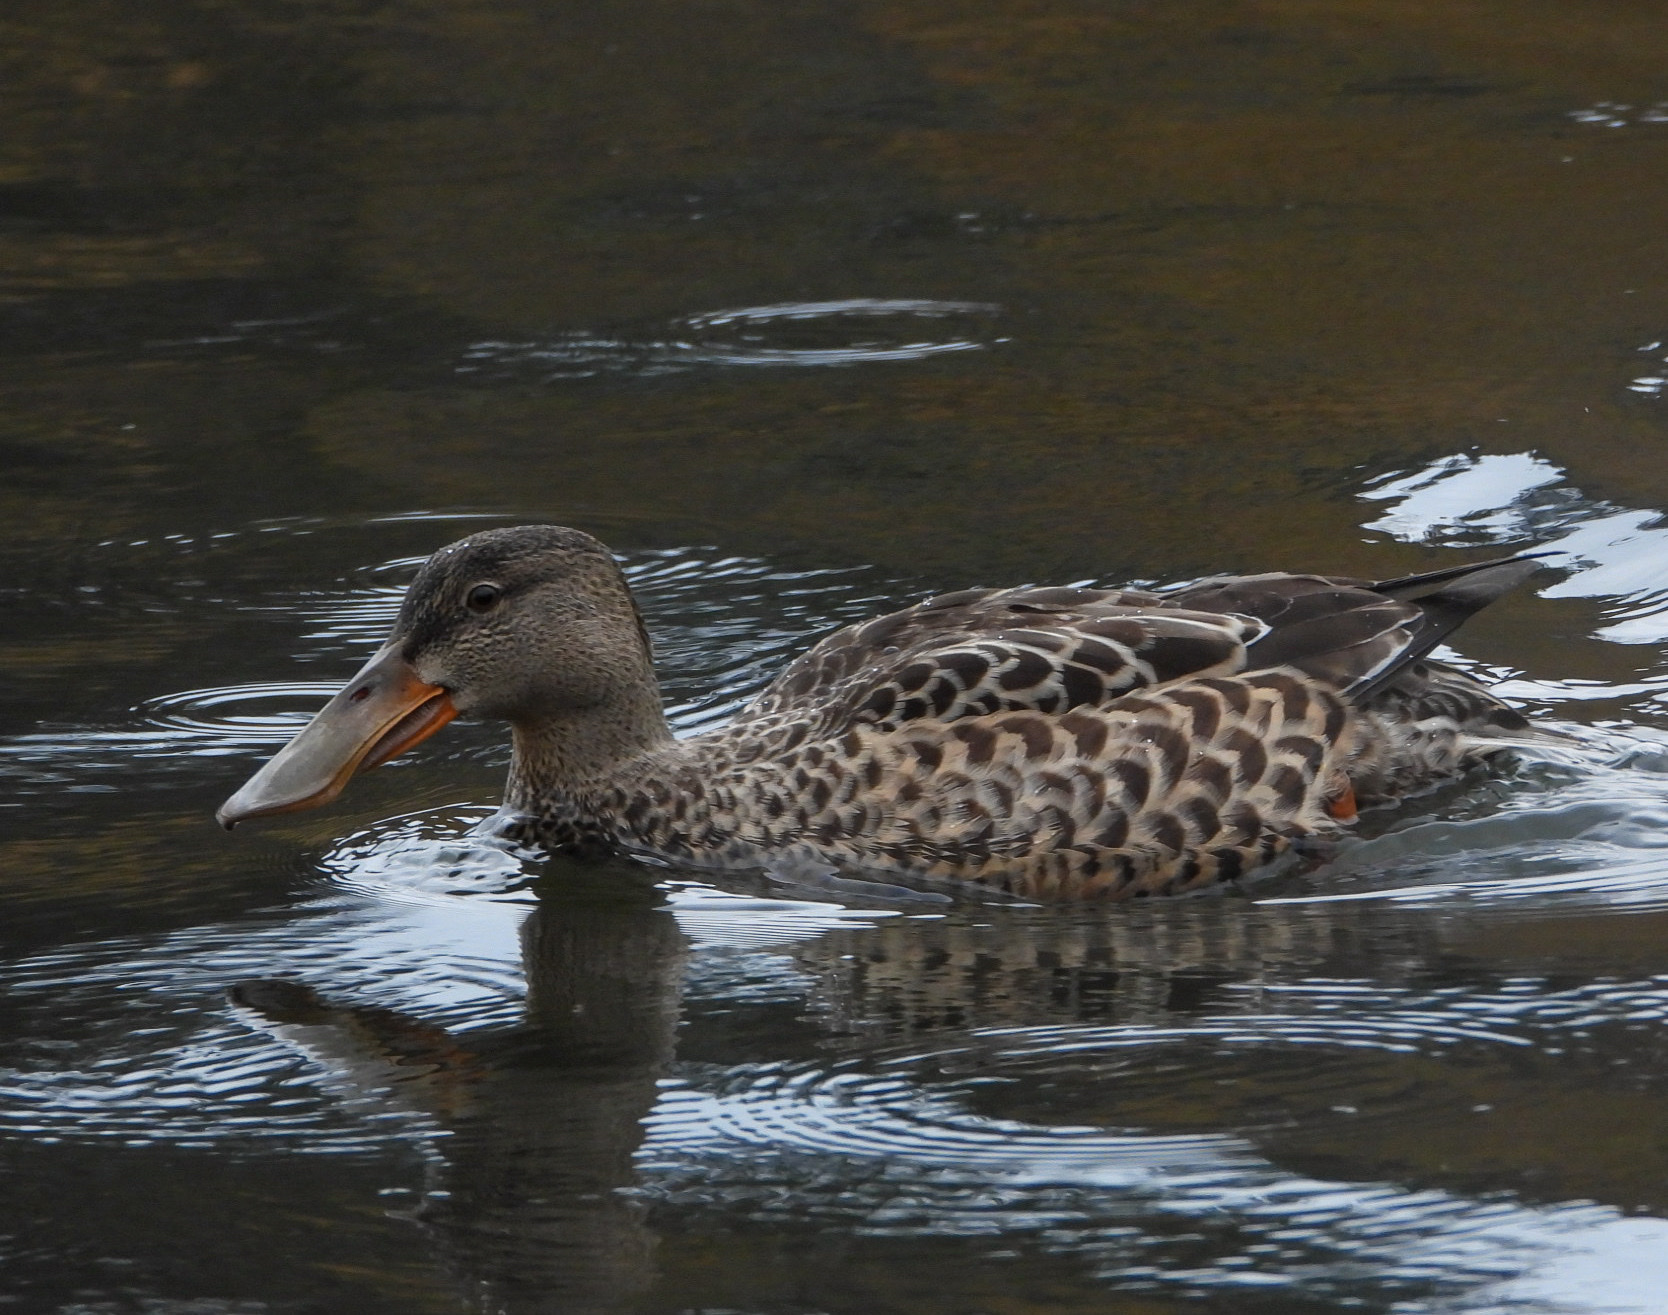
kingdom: Animalia
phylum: Chordata
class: Aves
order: Anseriformes
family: Anatidae
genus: Spatula
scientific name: Spatula clypeata
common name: Northern shoveler
